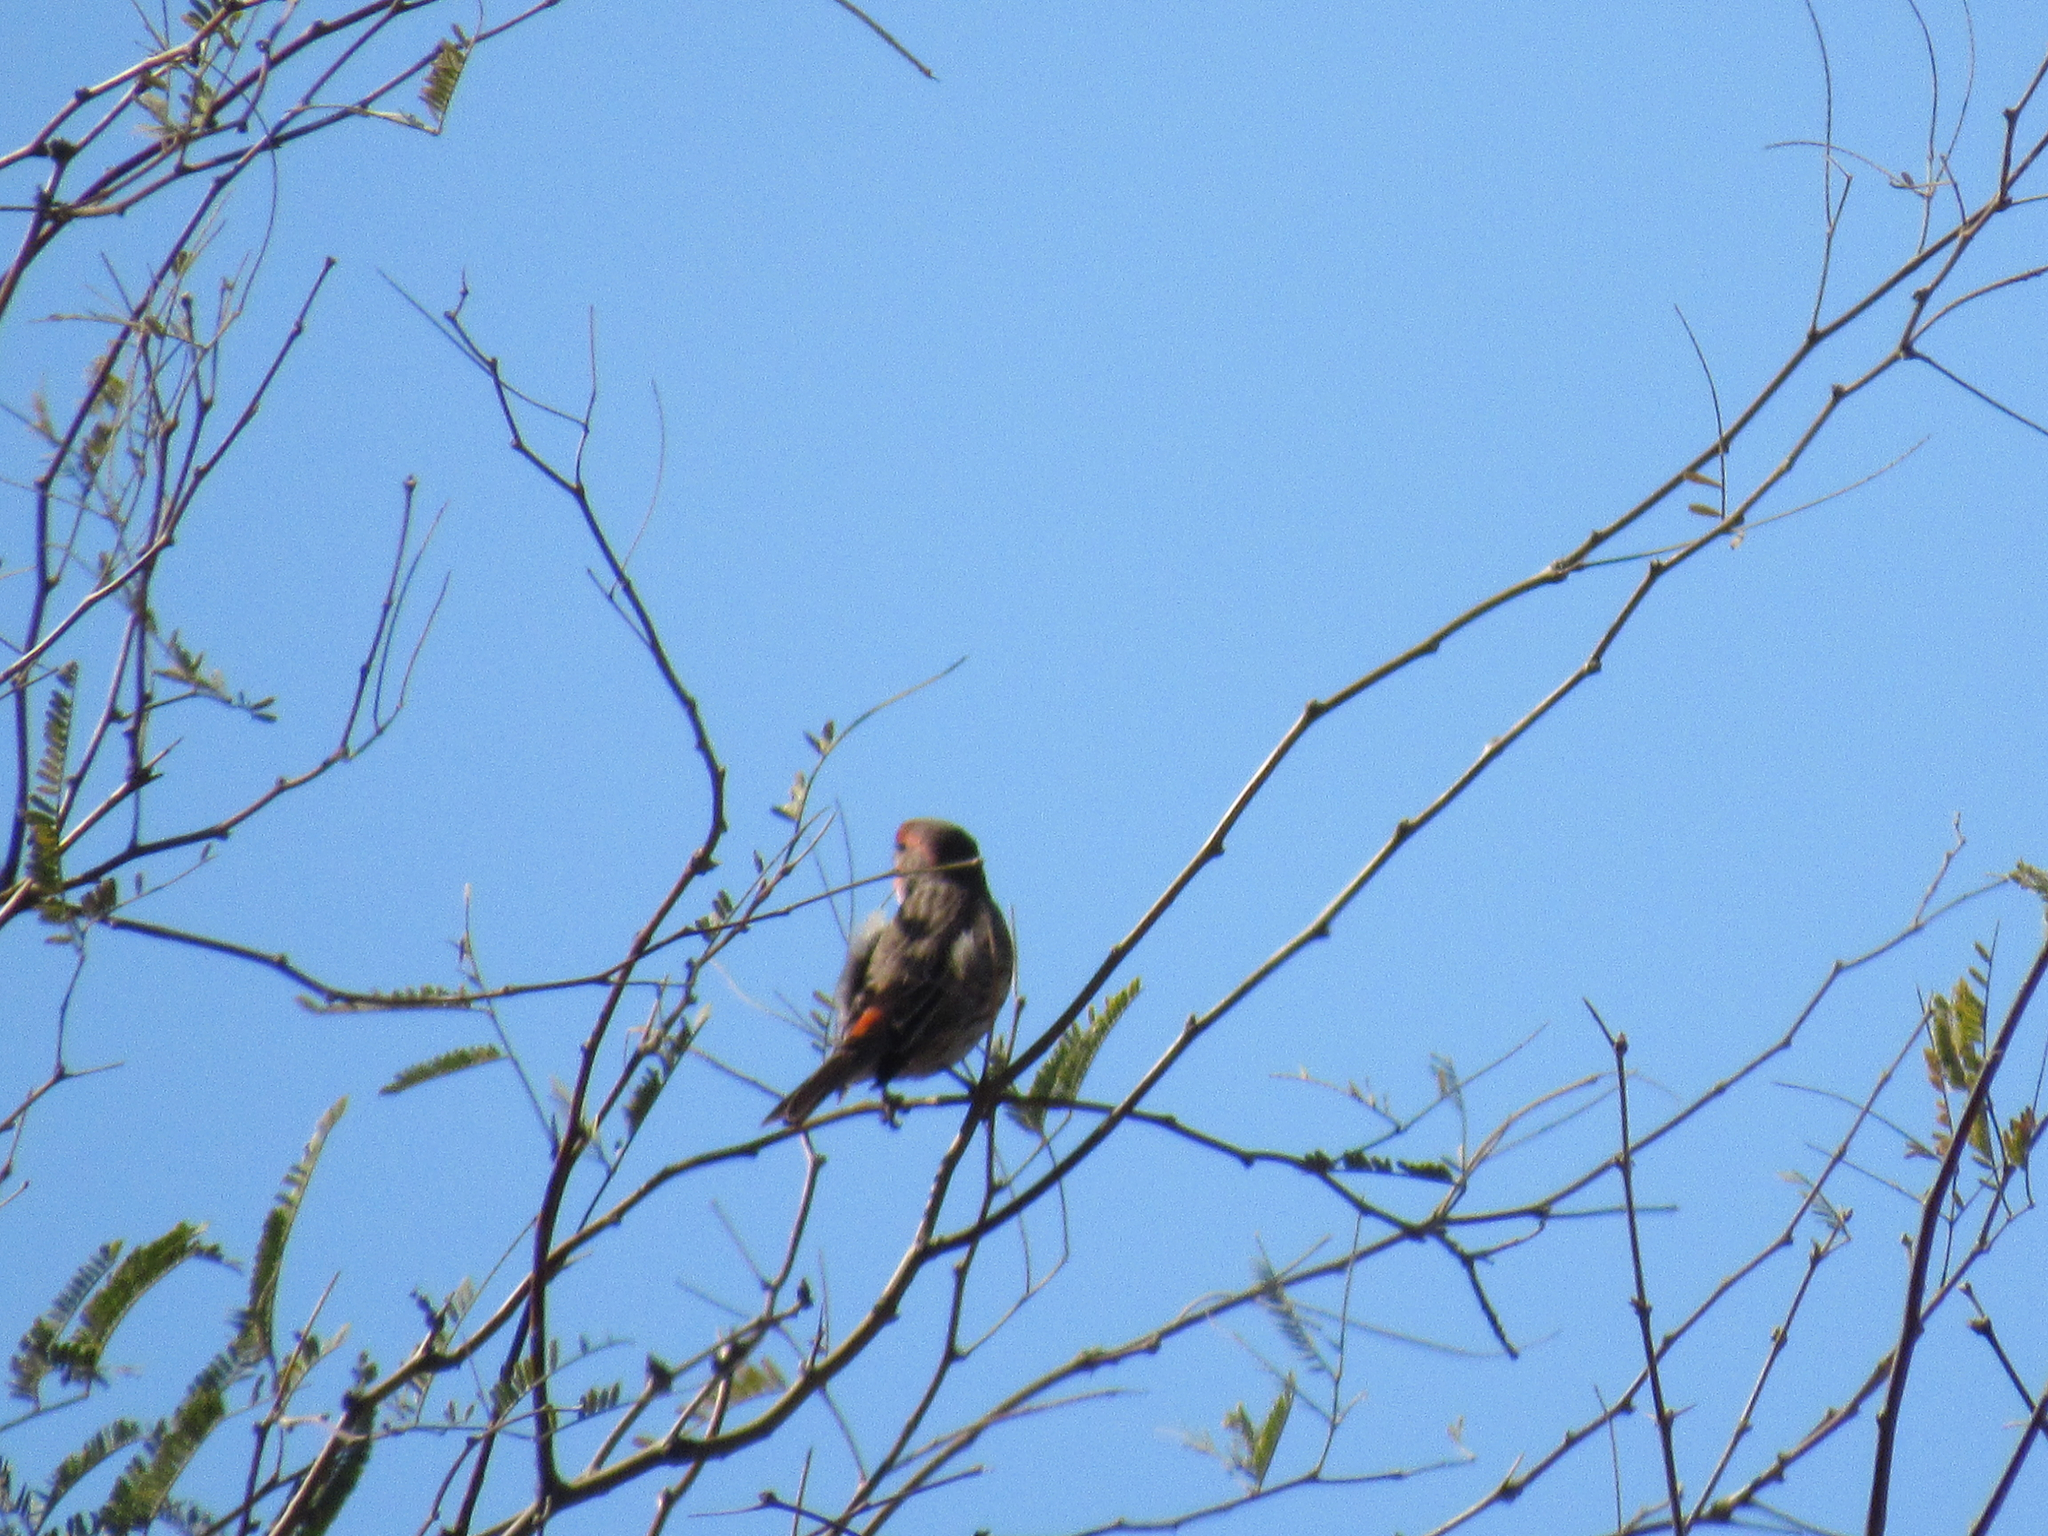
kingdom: Animalia
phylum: Chordata
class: Aves
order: Passeriformes
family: Fringillidae
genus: Haemorhous
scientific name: Haemorhous mexicanus
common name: House finch
